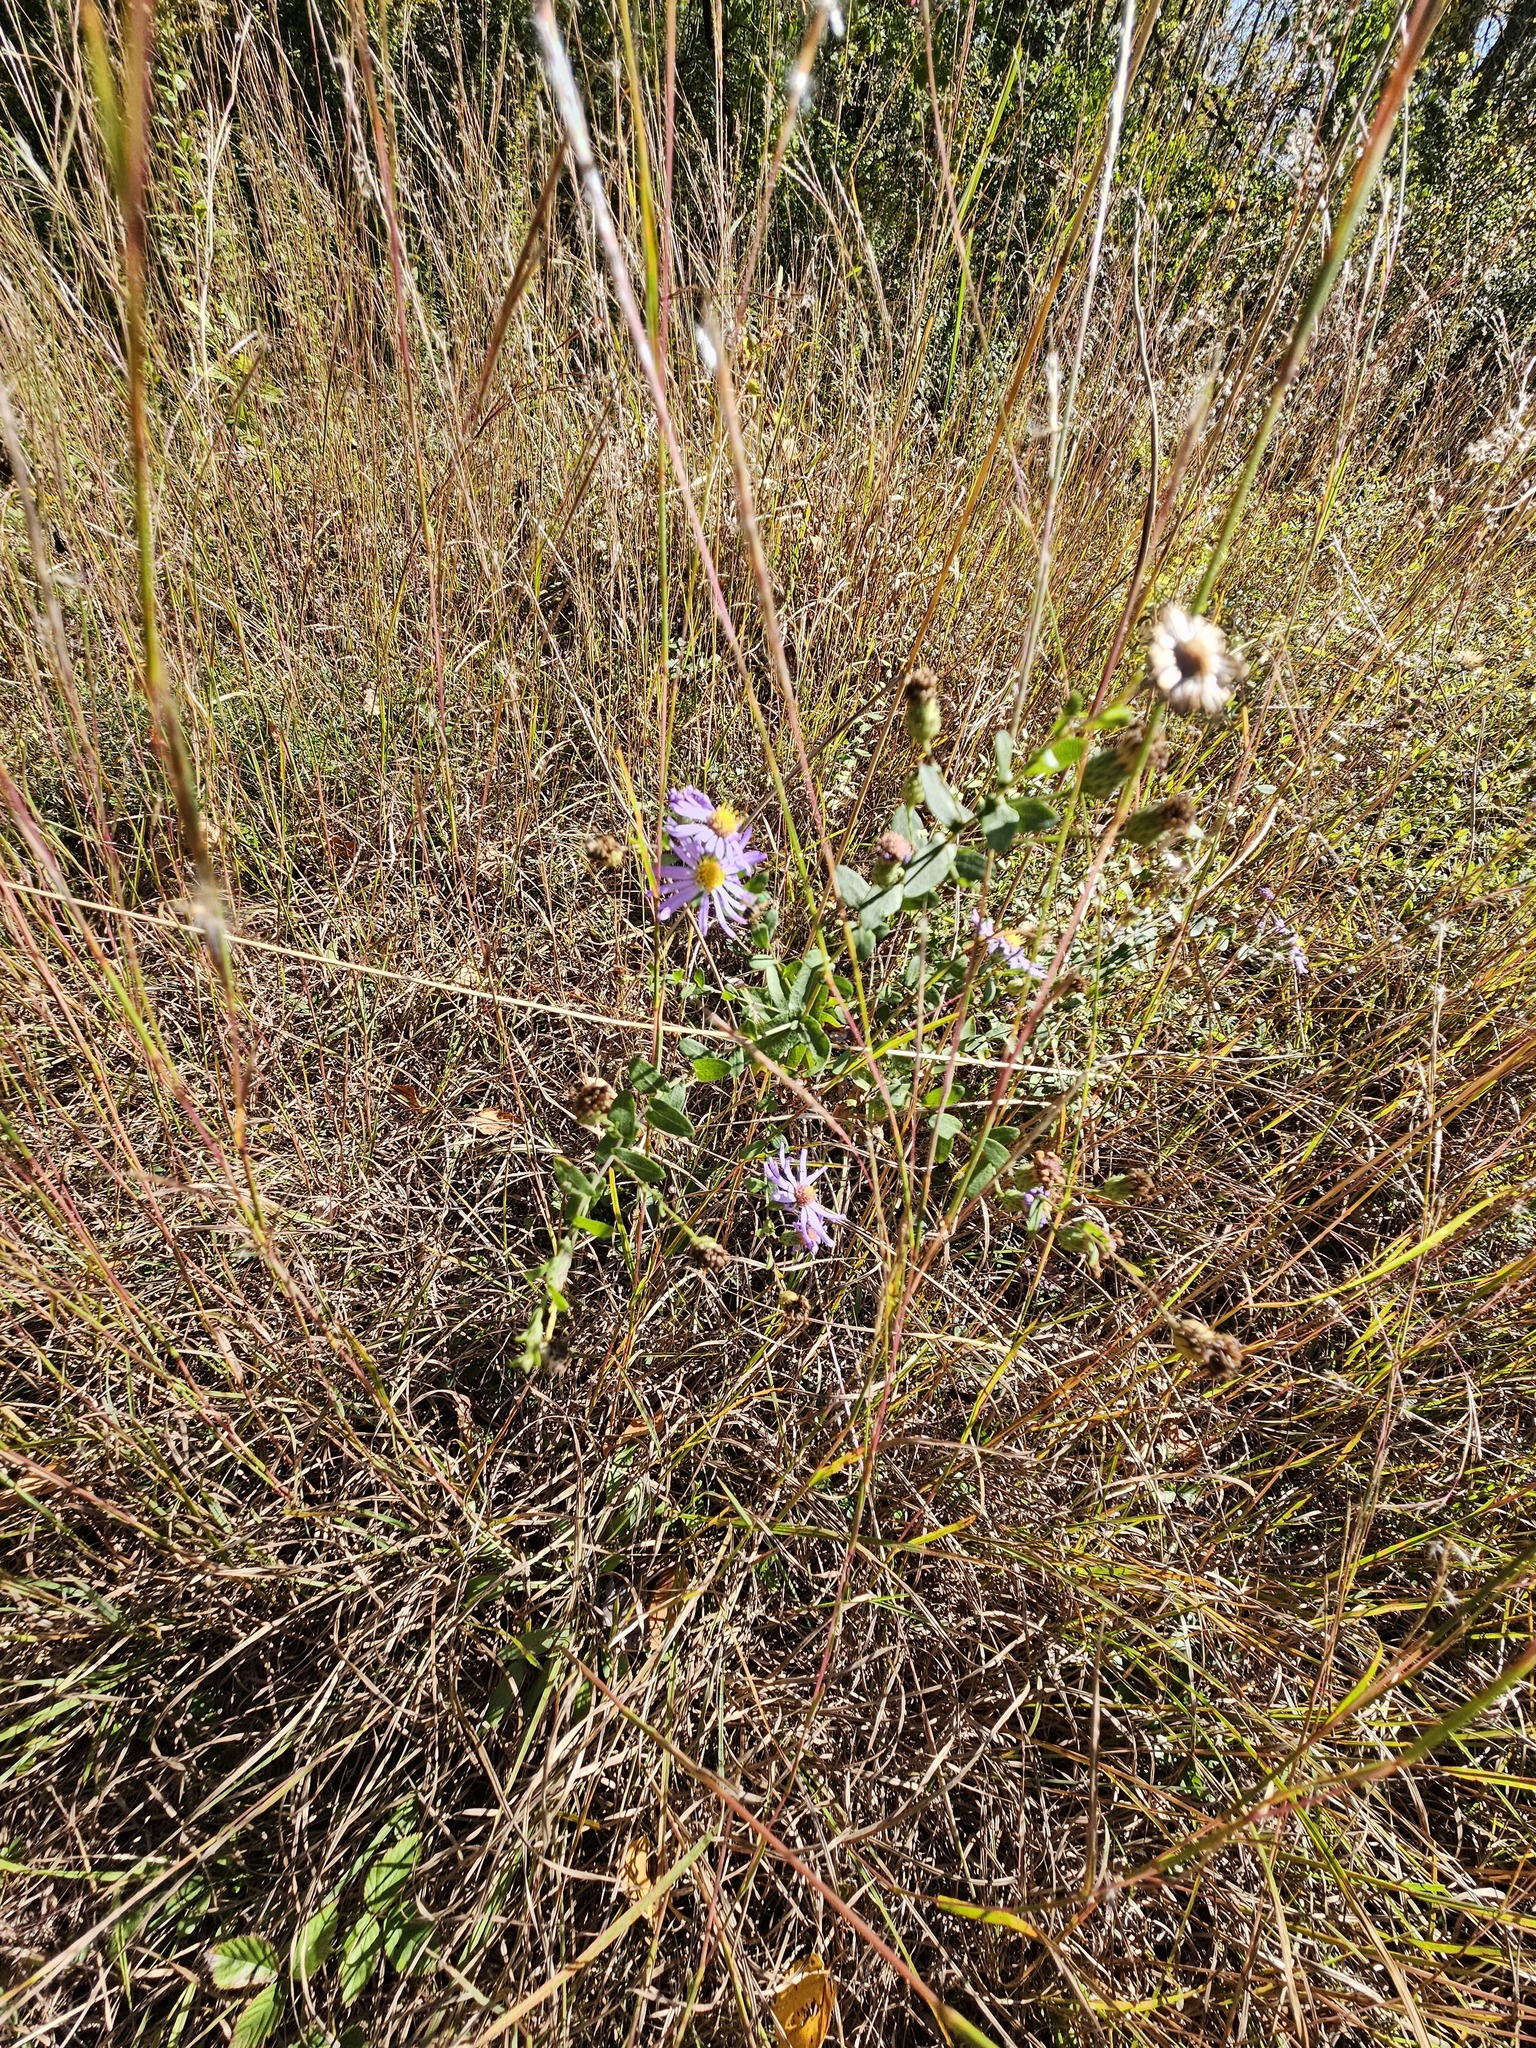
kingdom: Plantae
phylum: Tracheophyta
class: Magnoliopsida
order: Asterales
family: Asteraceae
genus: Symphyotrichum
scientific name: Symphyotrichum patens
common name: Late purple aster
